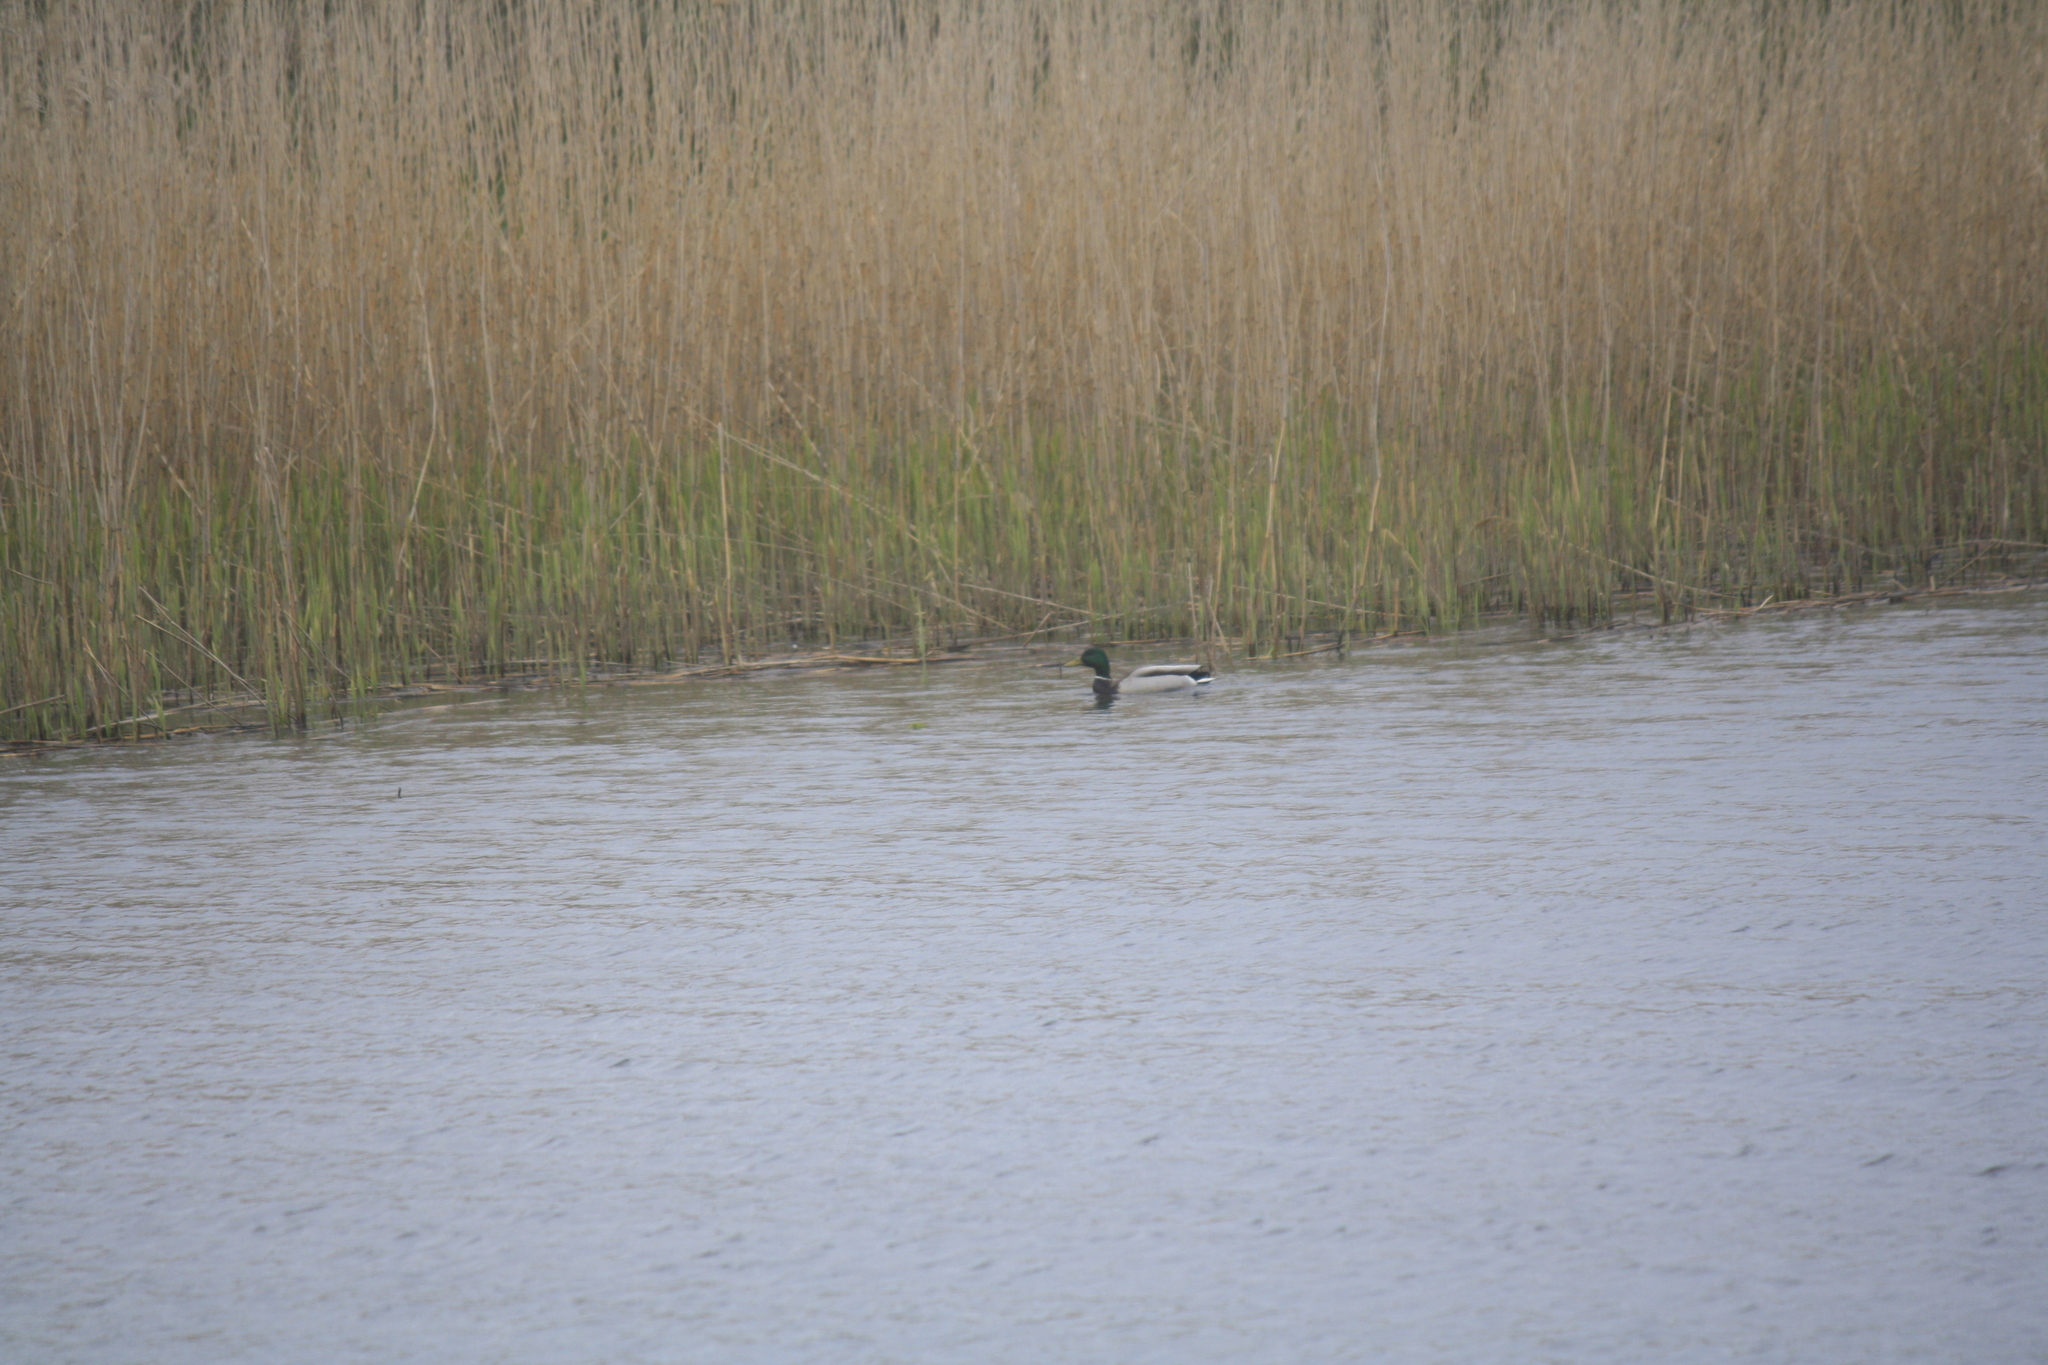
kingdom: Animalia
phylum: Chordata
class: Aves
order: Anseriformes
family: Anatidae
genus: Anas
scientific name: Anas platyrhynchos
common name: Mallard
